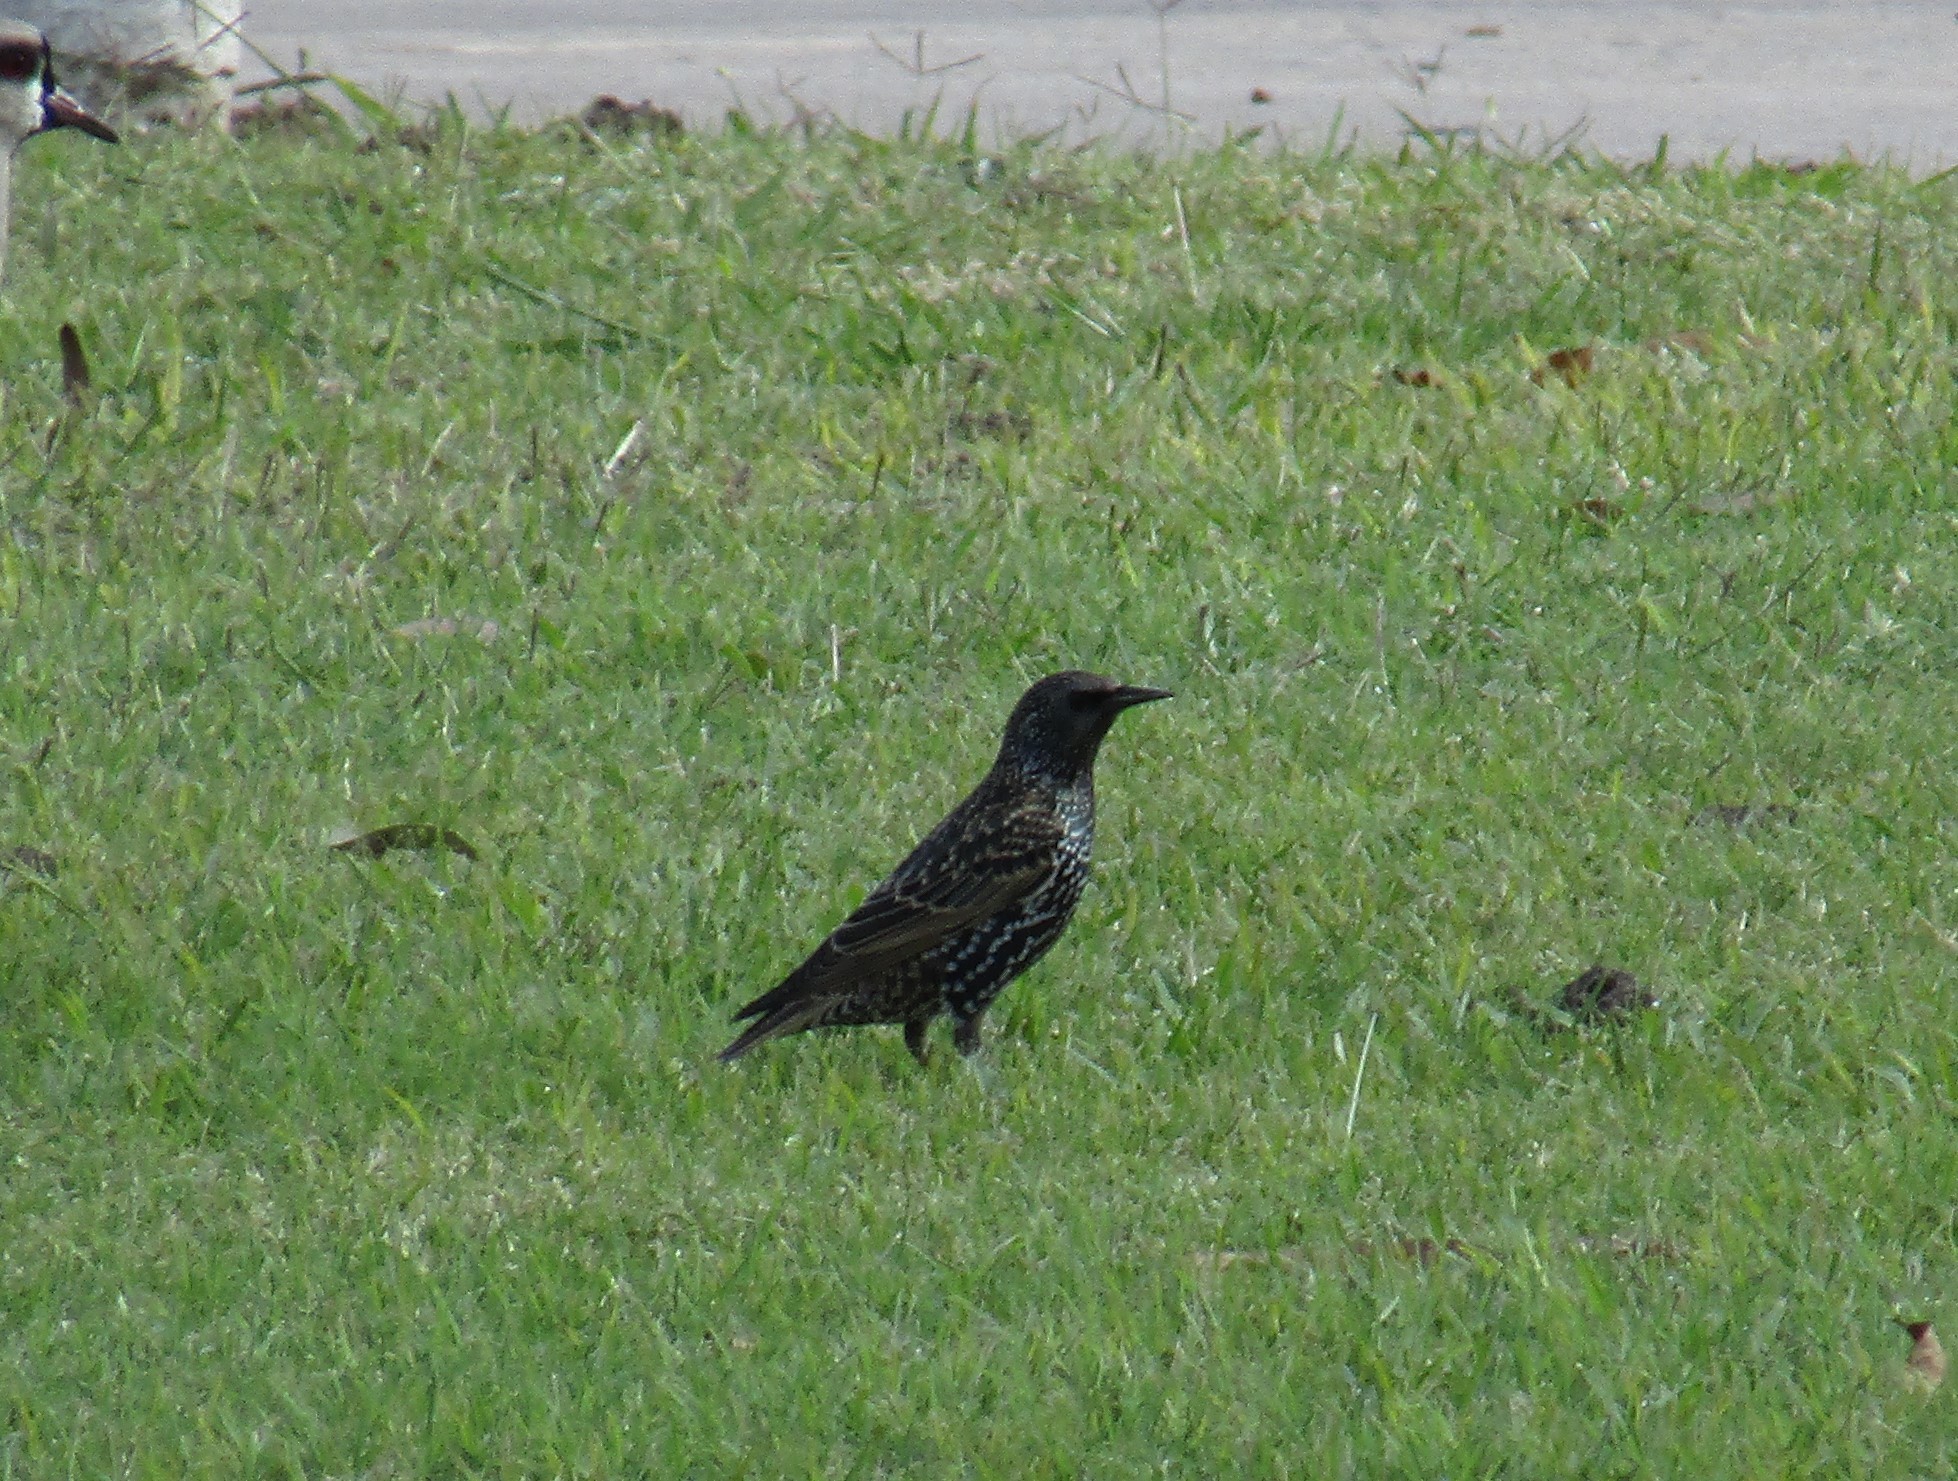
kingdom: Animalia
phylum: Chordata
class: Aves
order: Passeriformes
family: Sturnidae
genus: Sturnus
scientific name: Sturnus vulgaris
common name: Common starling
